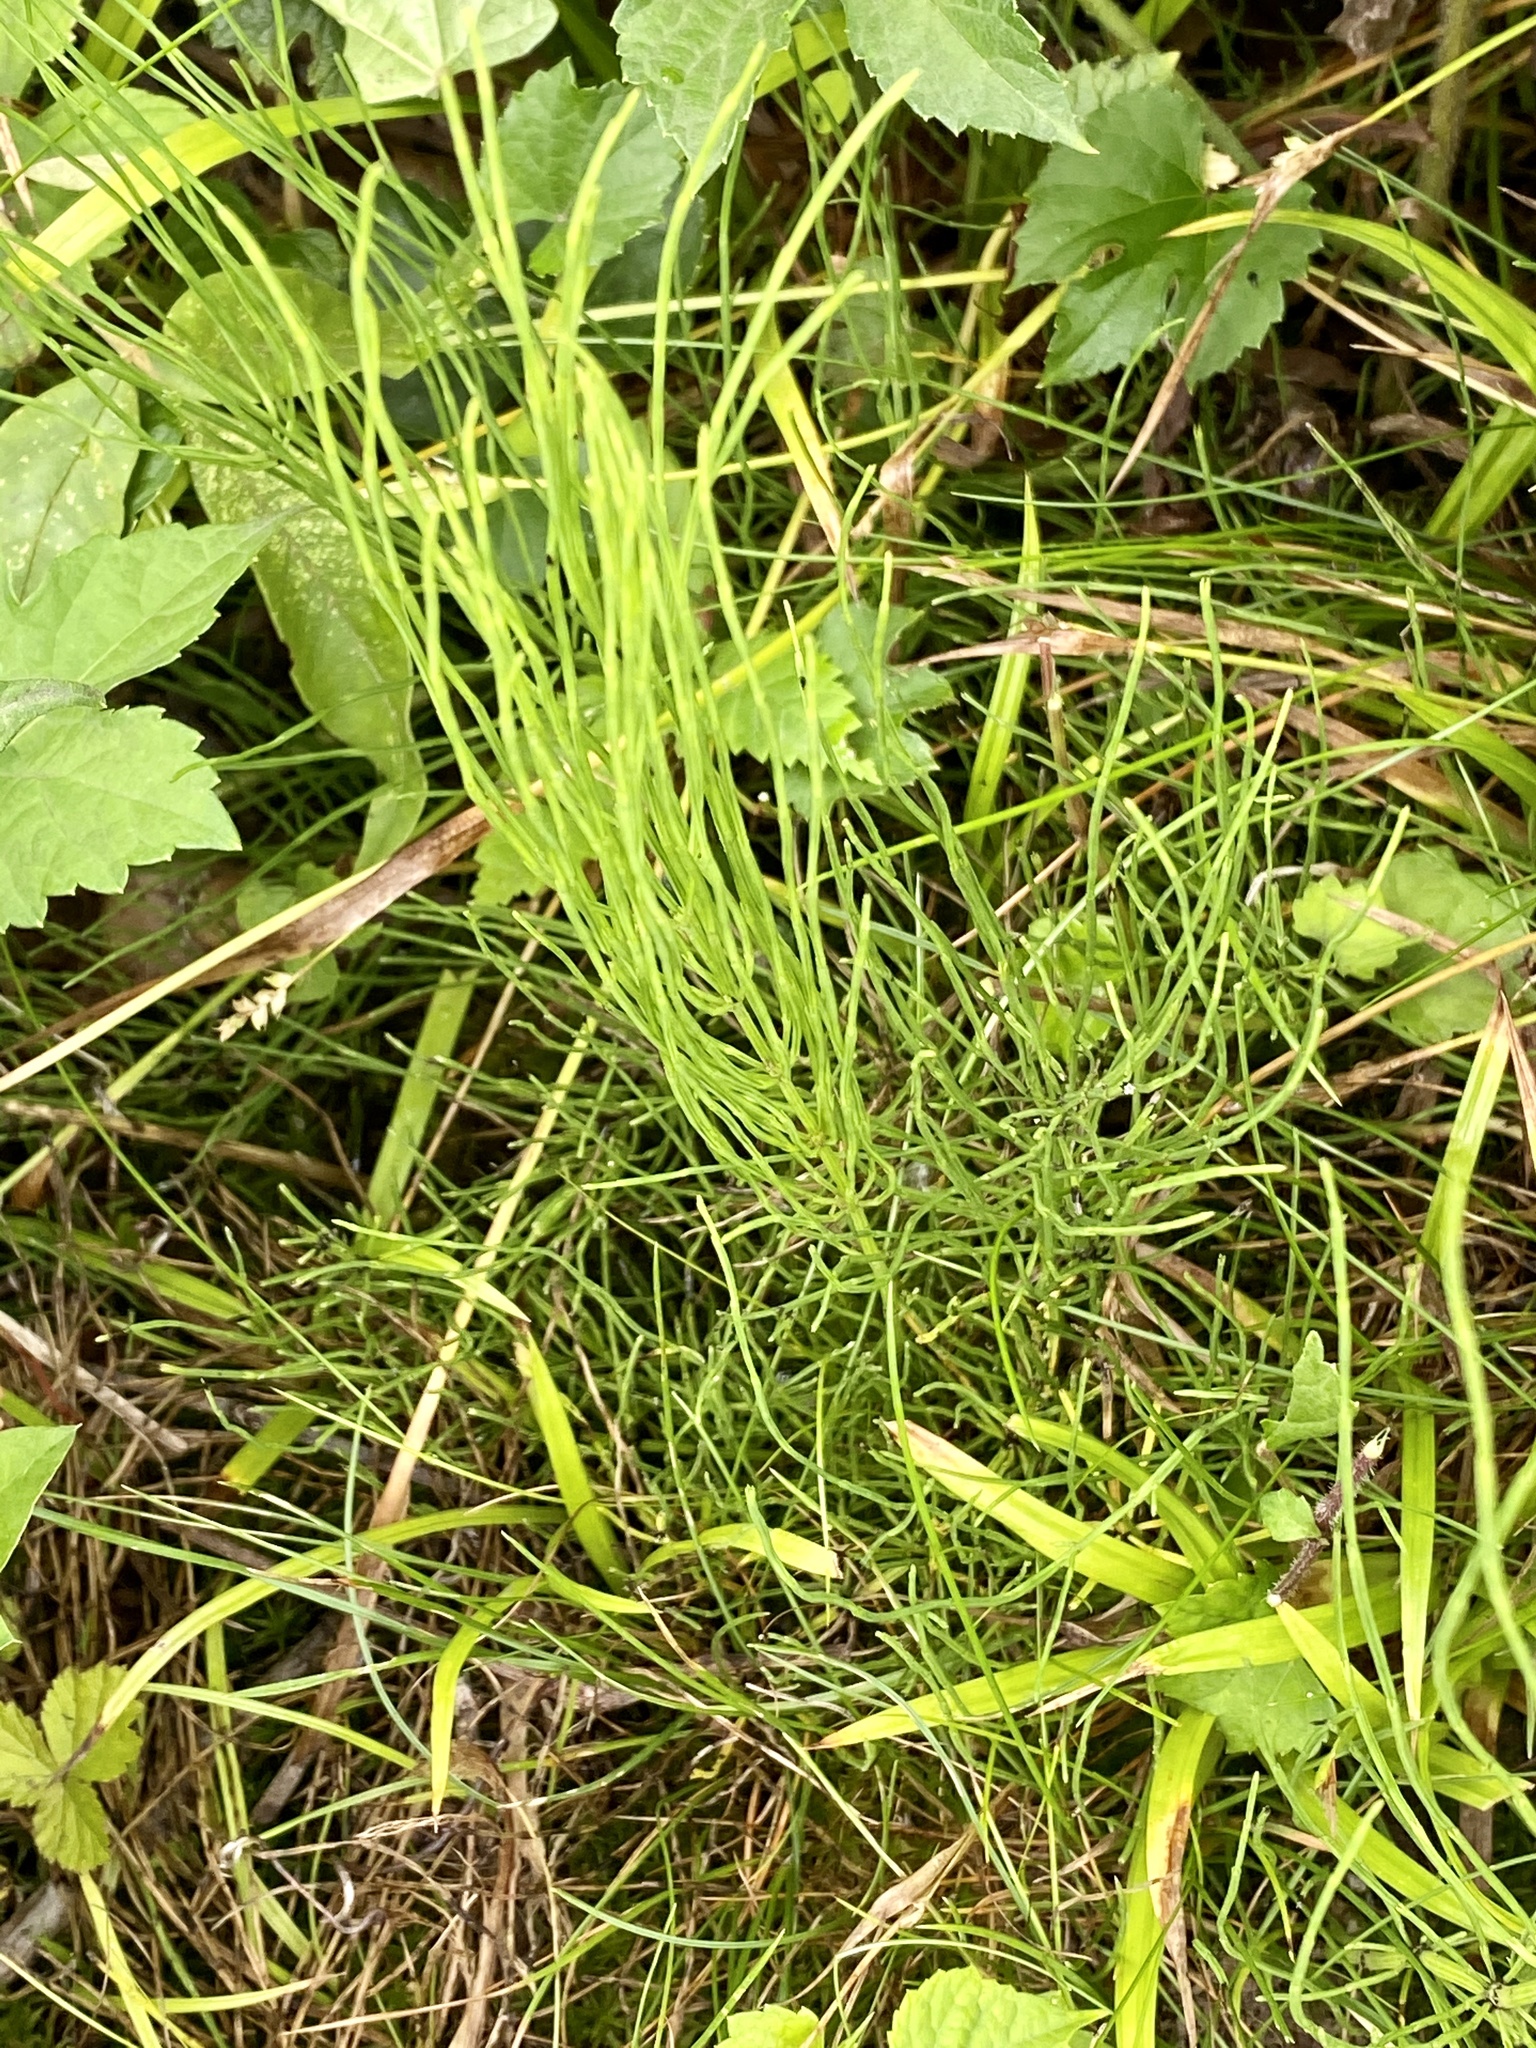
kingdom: Plantae
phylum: Tracheophyta
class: Polypodiopsida
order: Equisetales
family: Equisetaceae
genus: Equisetum
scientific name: Equisetum arvense
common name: Field horsetail
